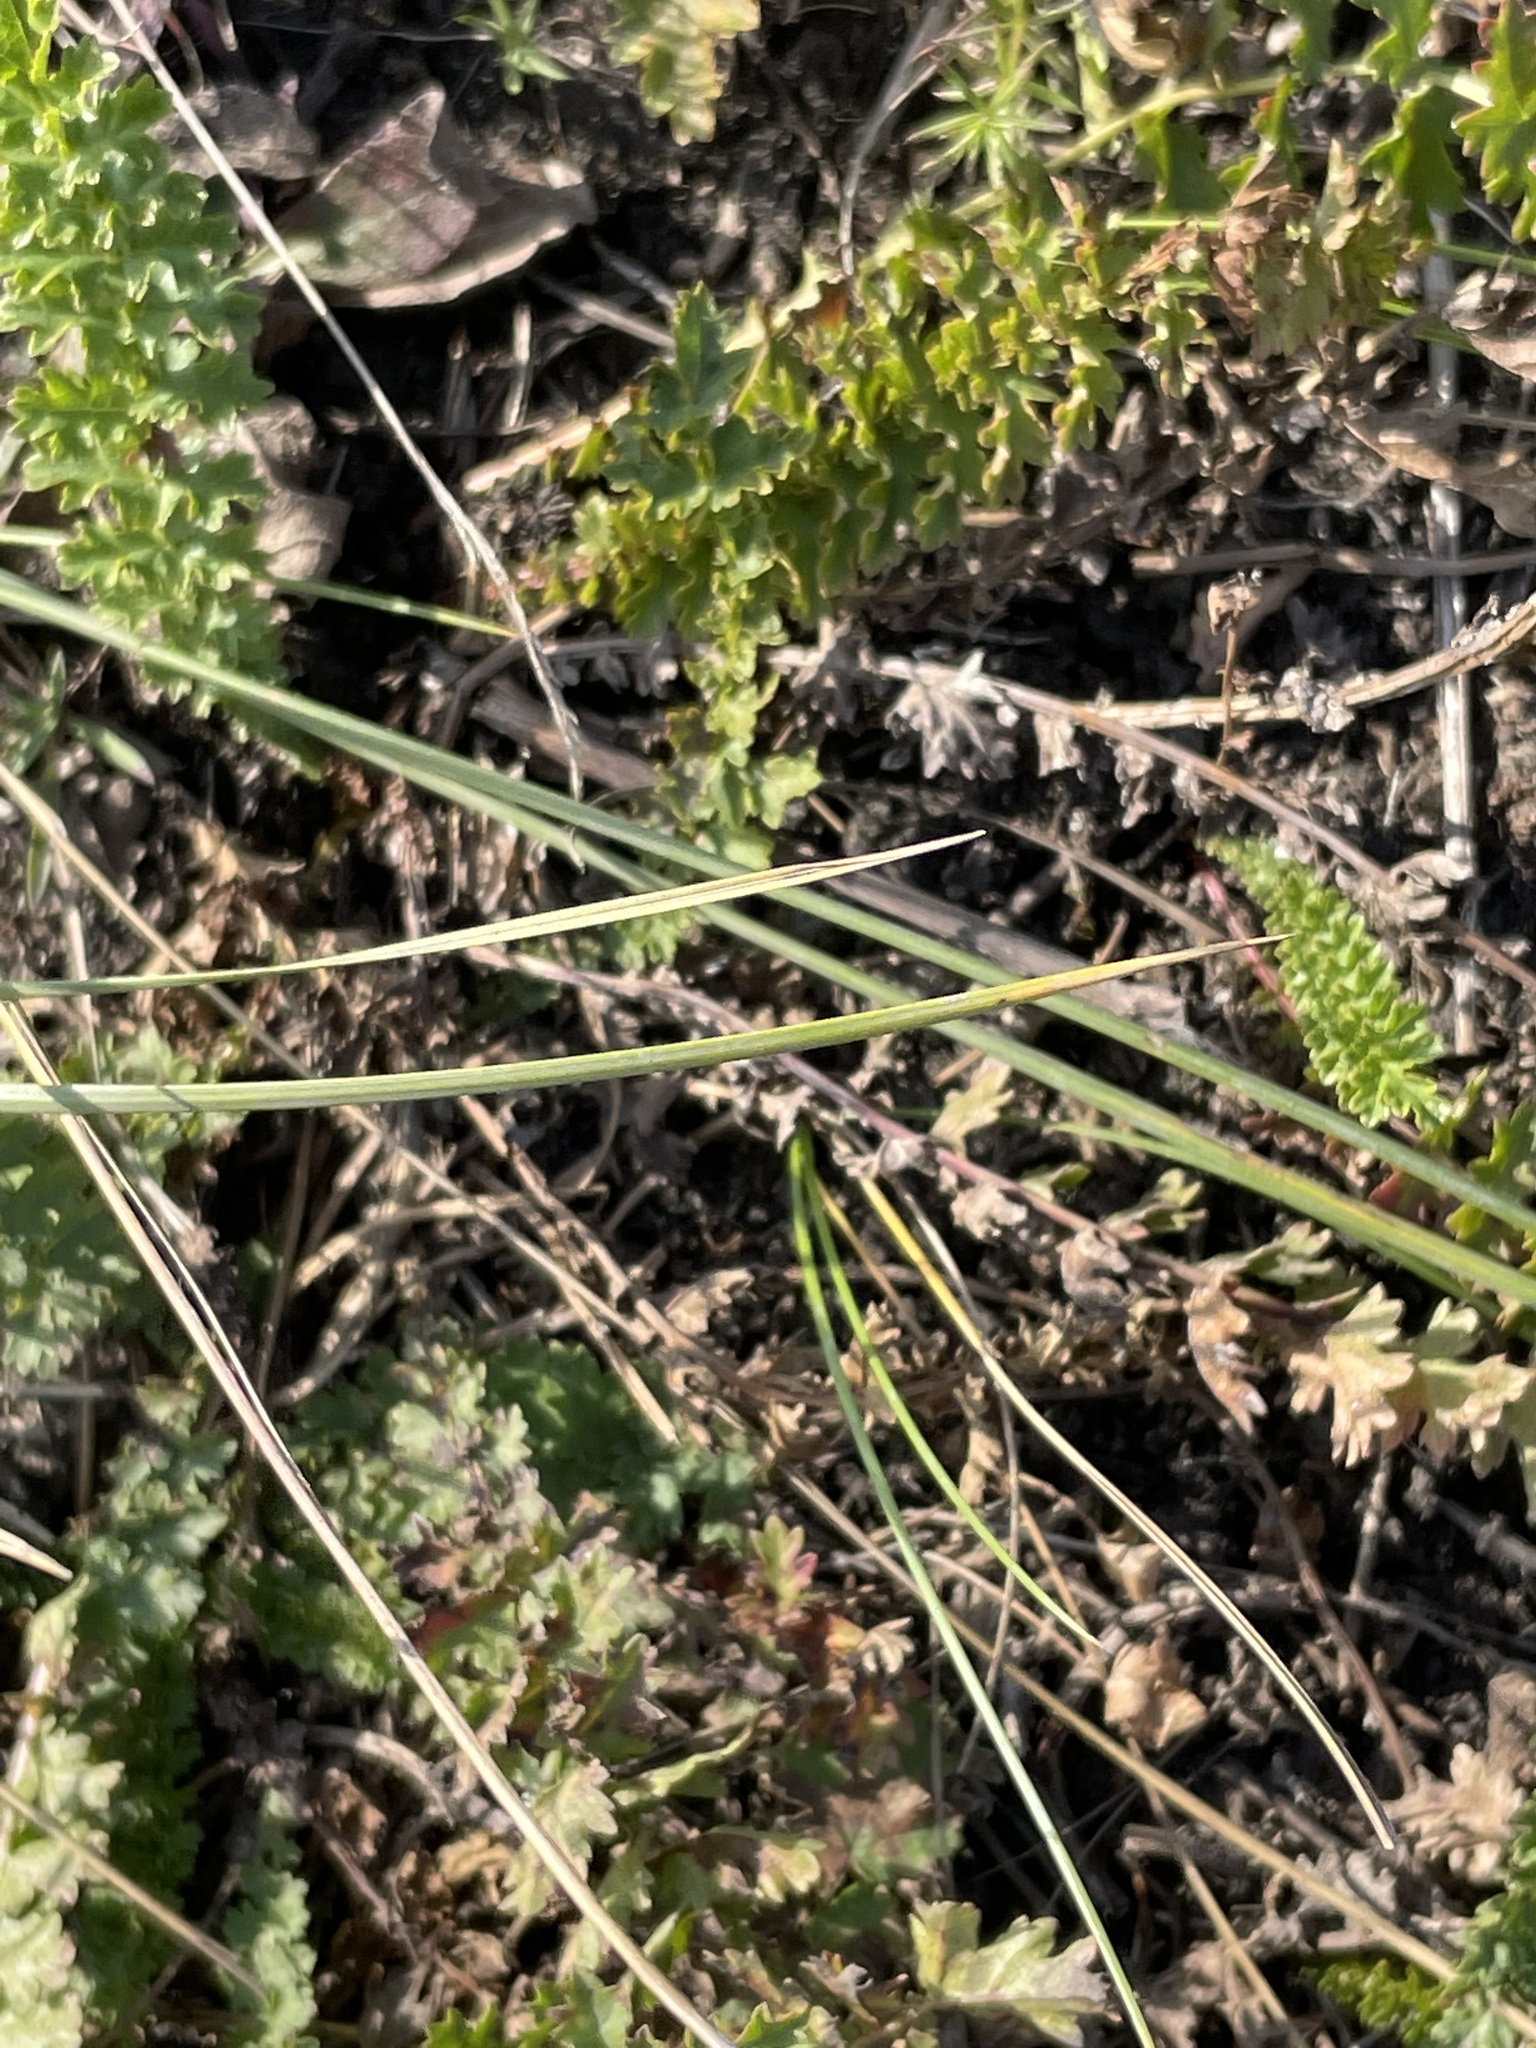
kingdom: Plantae
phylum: Tracheophyta
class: Magnoliopsida
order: Rosales
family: Rosaceae
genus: Filipendula
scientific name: Filipendula vulgaris
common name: Dropwort
